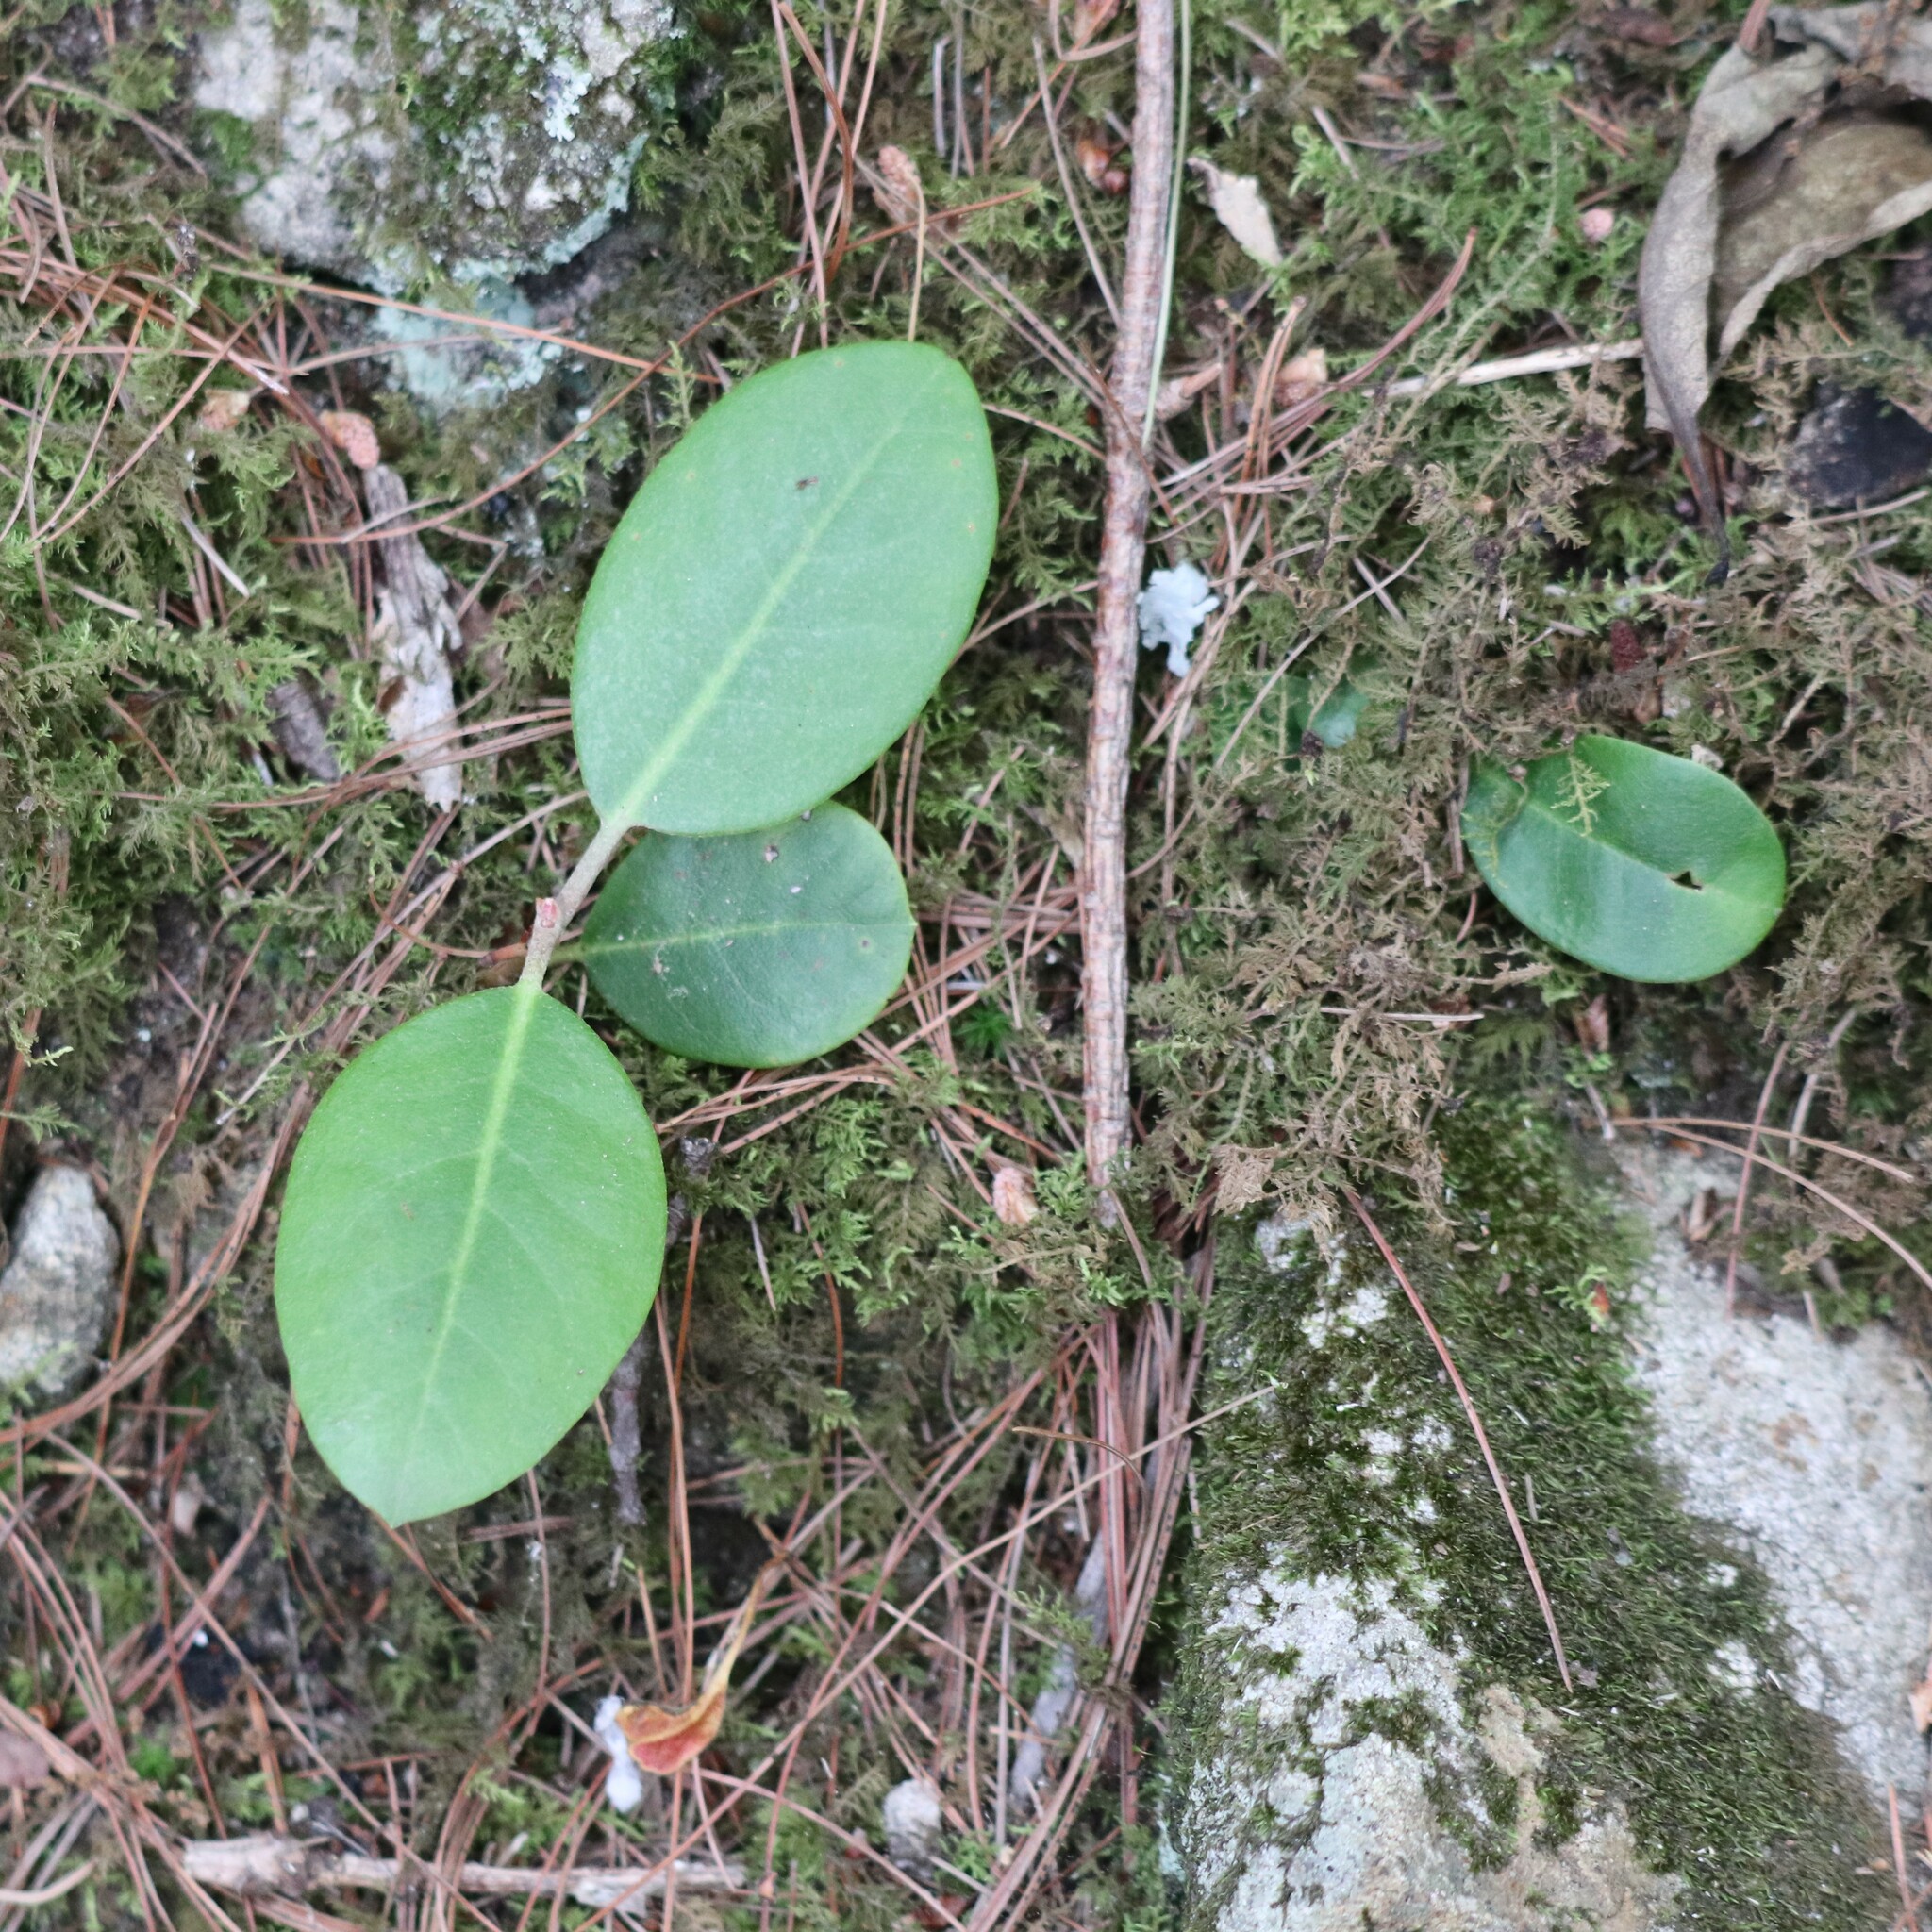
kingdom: Plantae
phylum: Tracheophyta
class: Magnoliopsida
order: Ericales
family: Ericaceae
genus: Gaultheria
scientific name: Gaultheria procumbens
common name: Checkerberry
